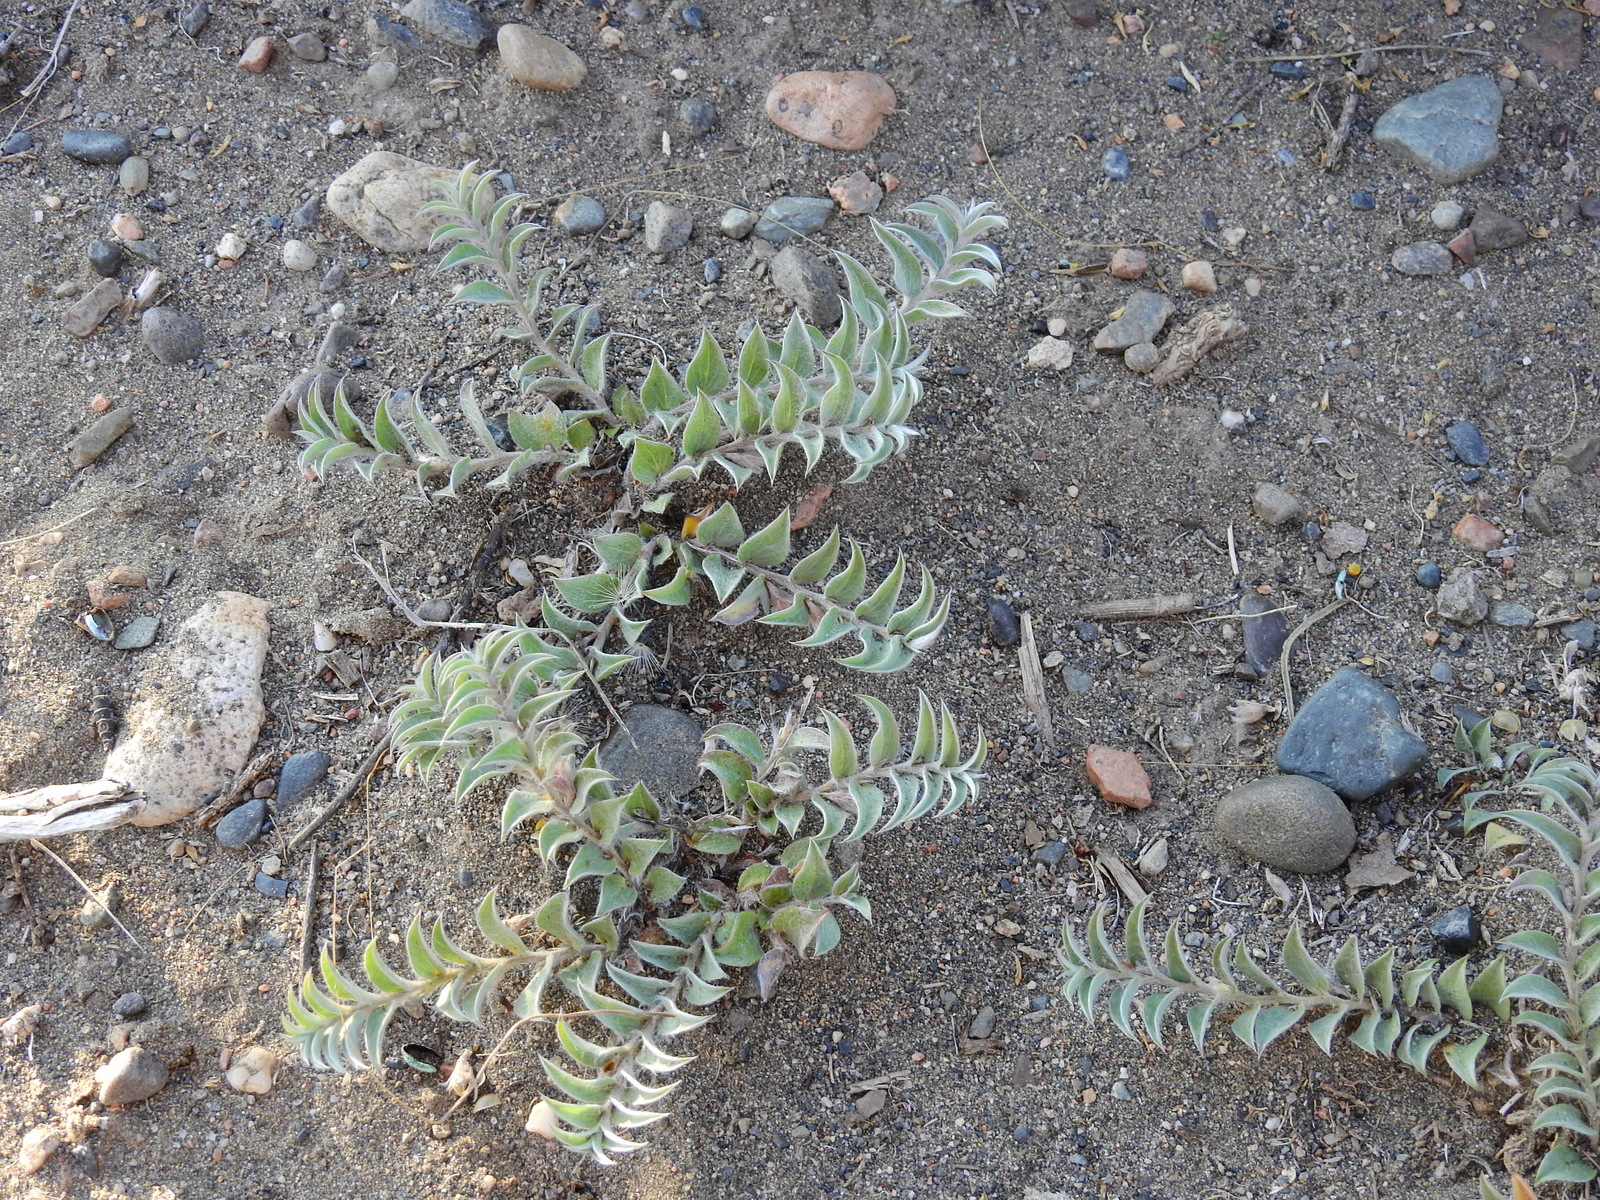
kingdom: Plantae
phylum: Tracheophyta
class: Magnoliopsida
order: Solanales
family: Convolvulaceae
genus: Evolvulus
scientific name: Evolvulus sericeus
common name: Blue dots
